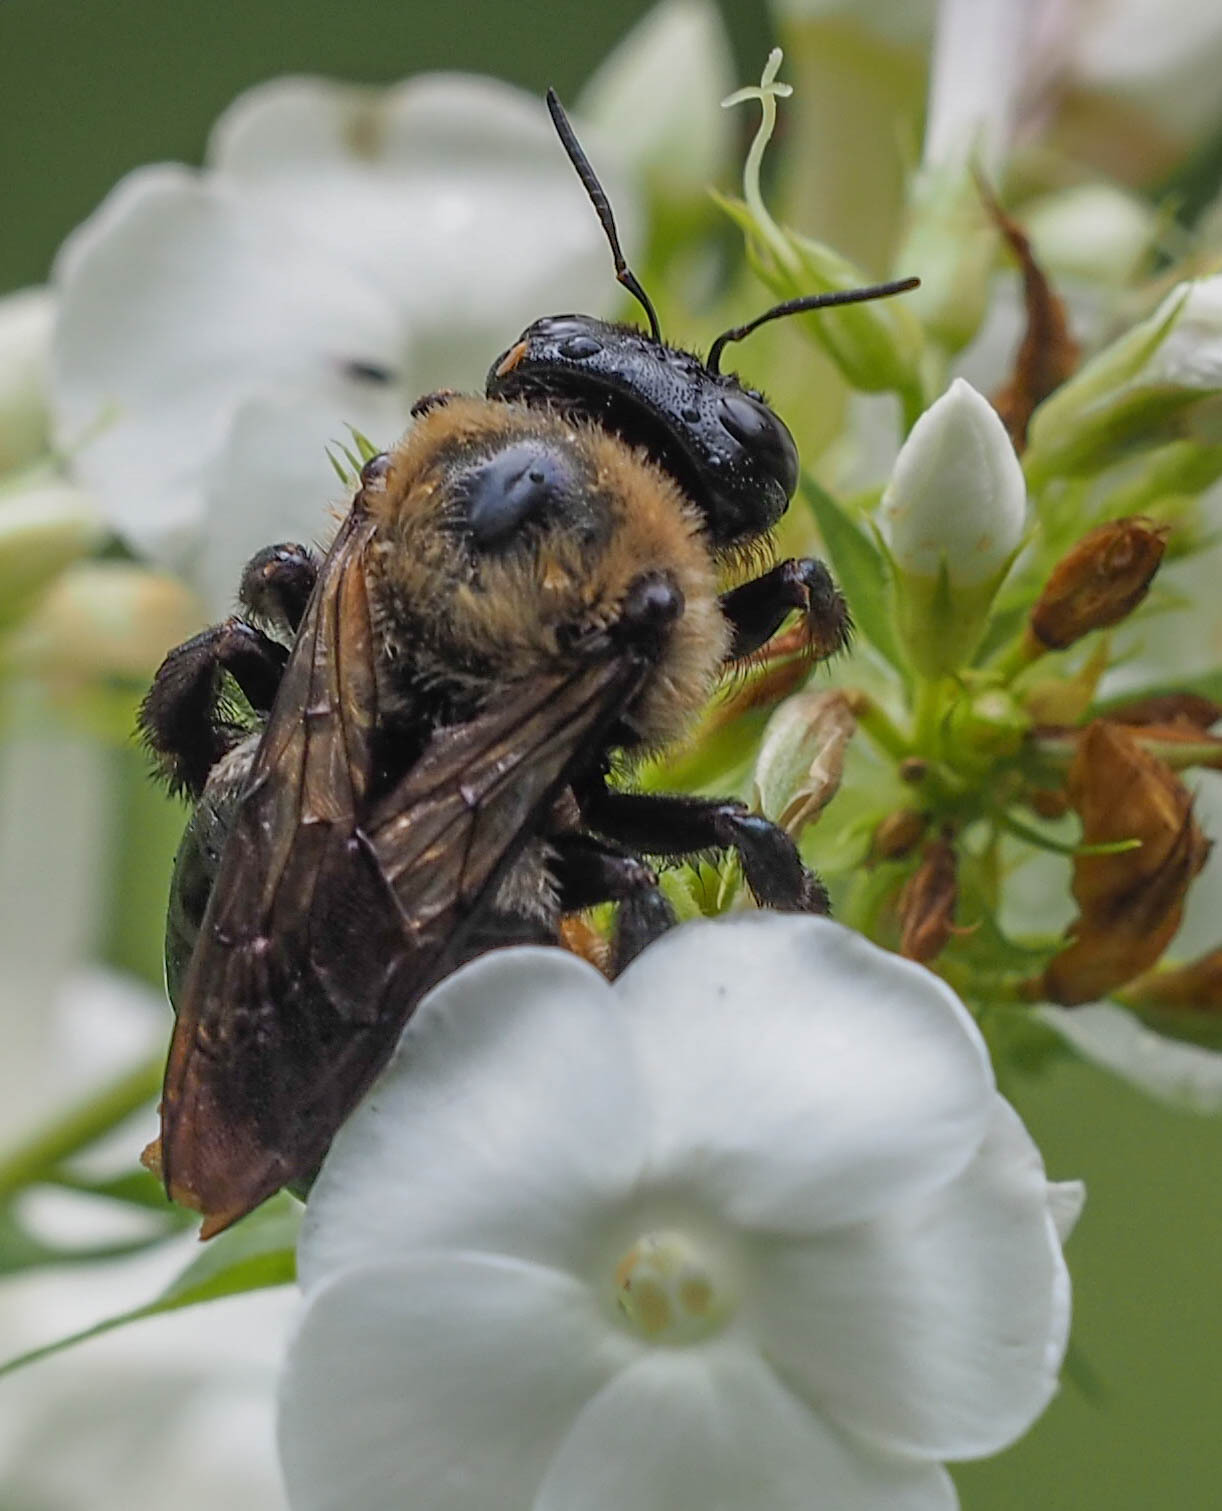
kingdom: Animalia
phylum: Arthropoda
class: Insecta
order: Hymenoptera
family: Apidae
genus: Xylocopa
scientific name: Xylocopa virginica
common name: Carpenter bee
